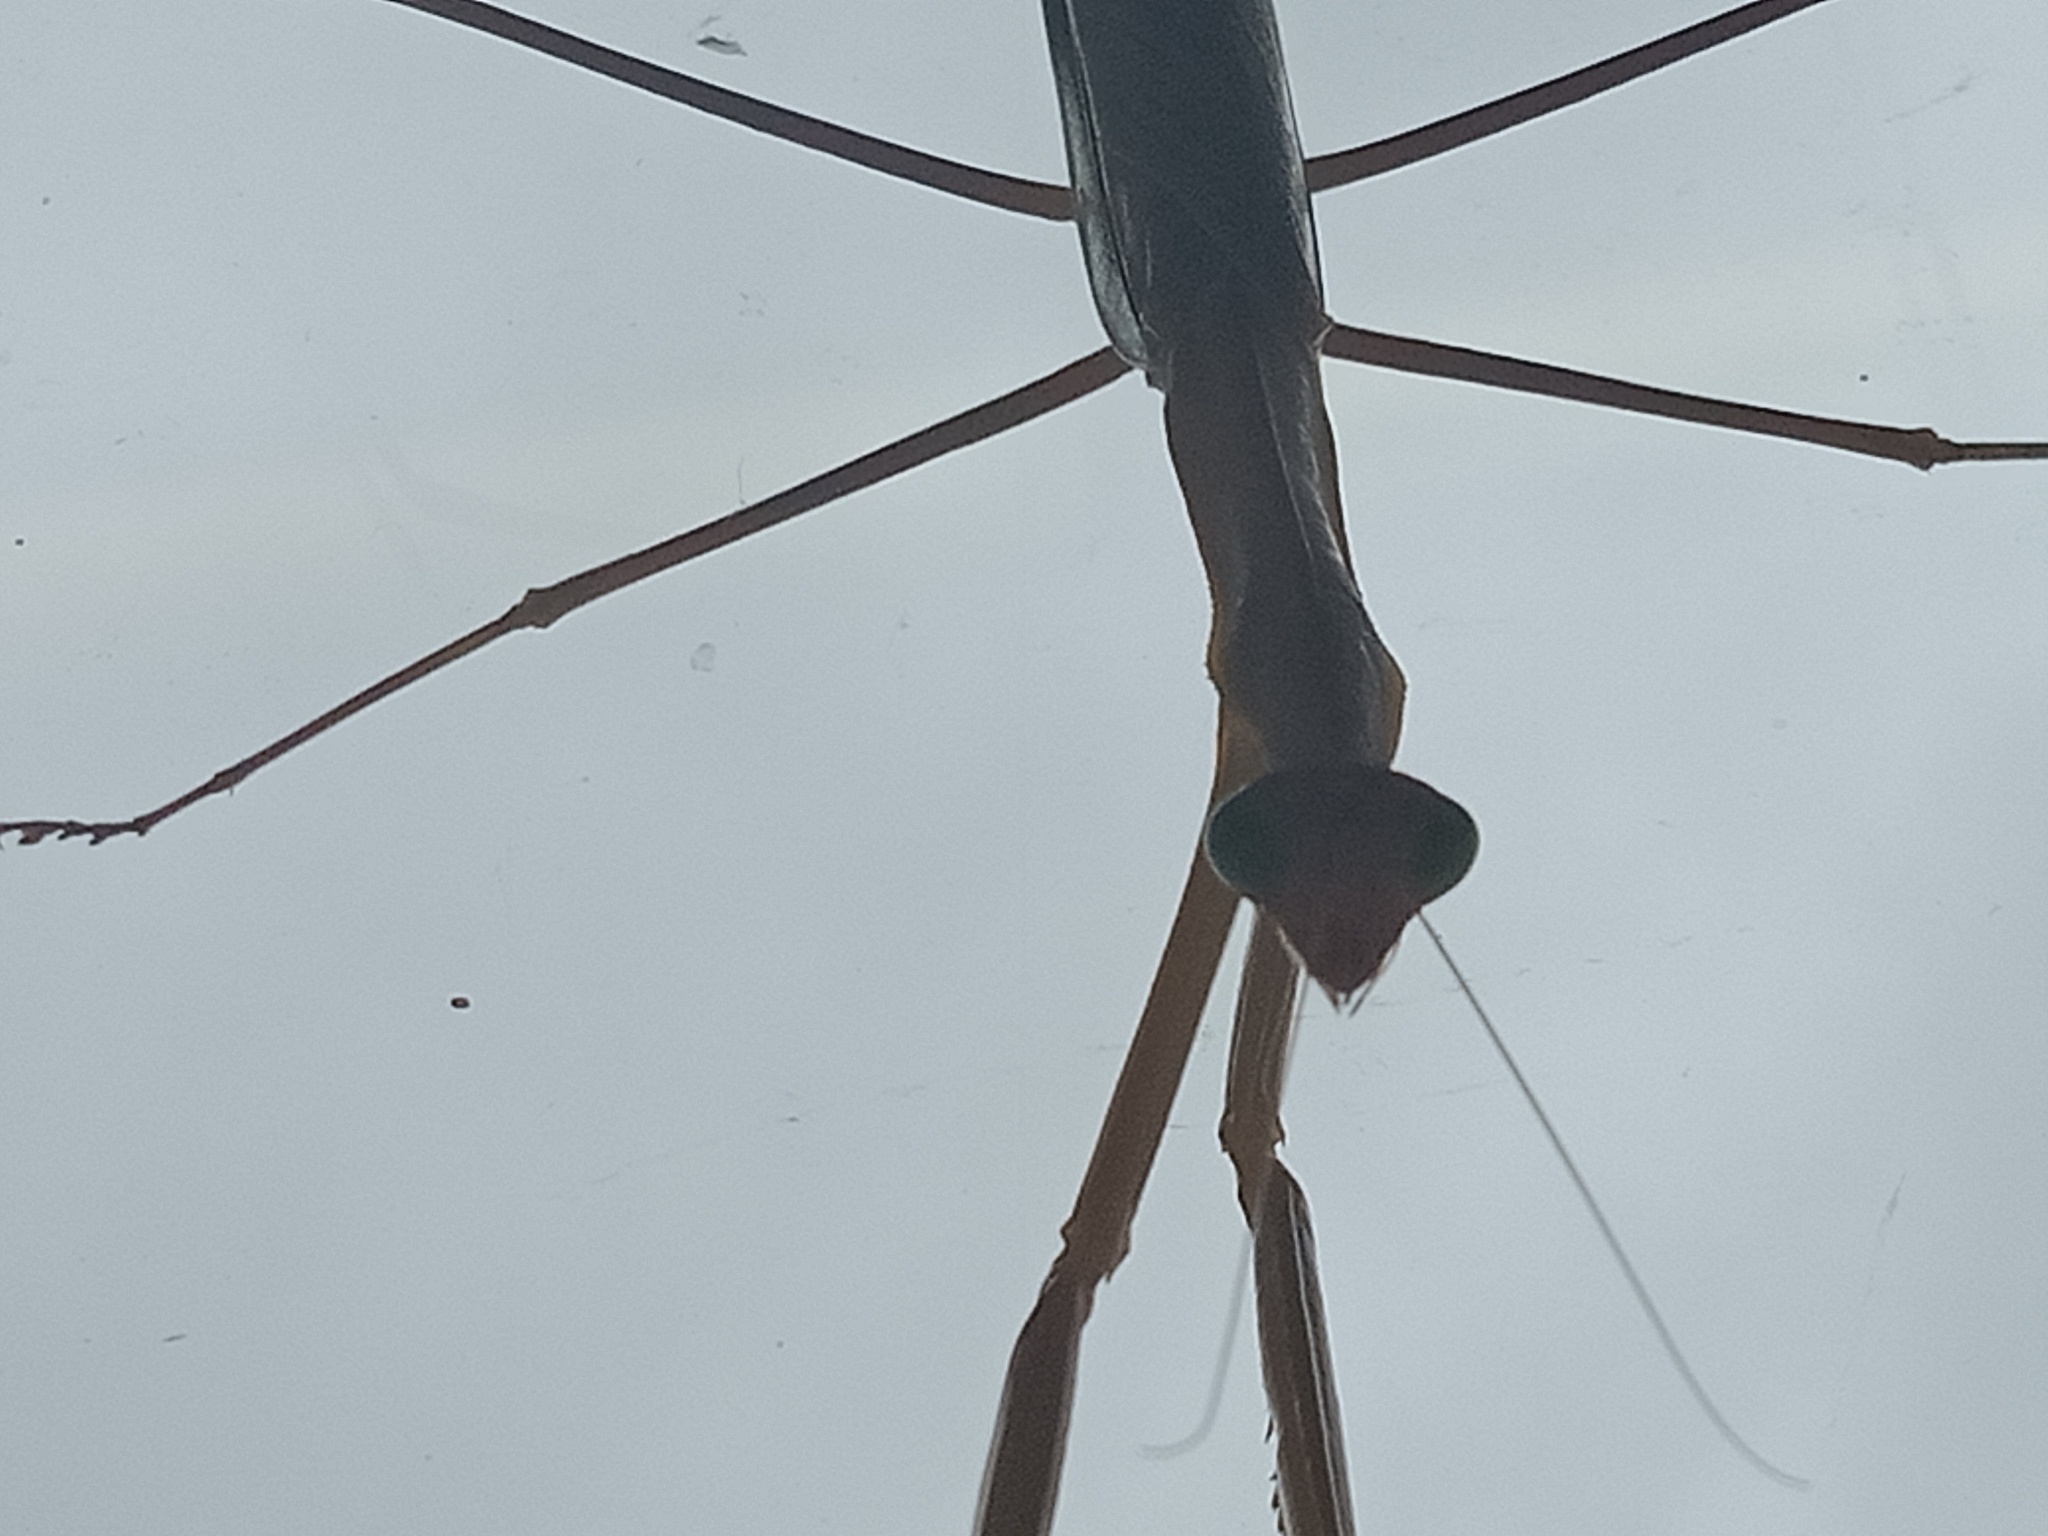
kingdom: Animalia
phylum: Arthropoda
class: Insecta
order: Mantodea
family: Mantidae
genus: Tenodera
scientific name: Tenodera australasiae
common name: Purple-winged mantis
